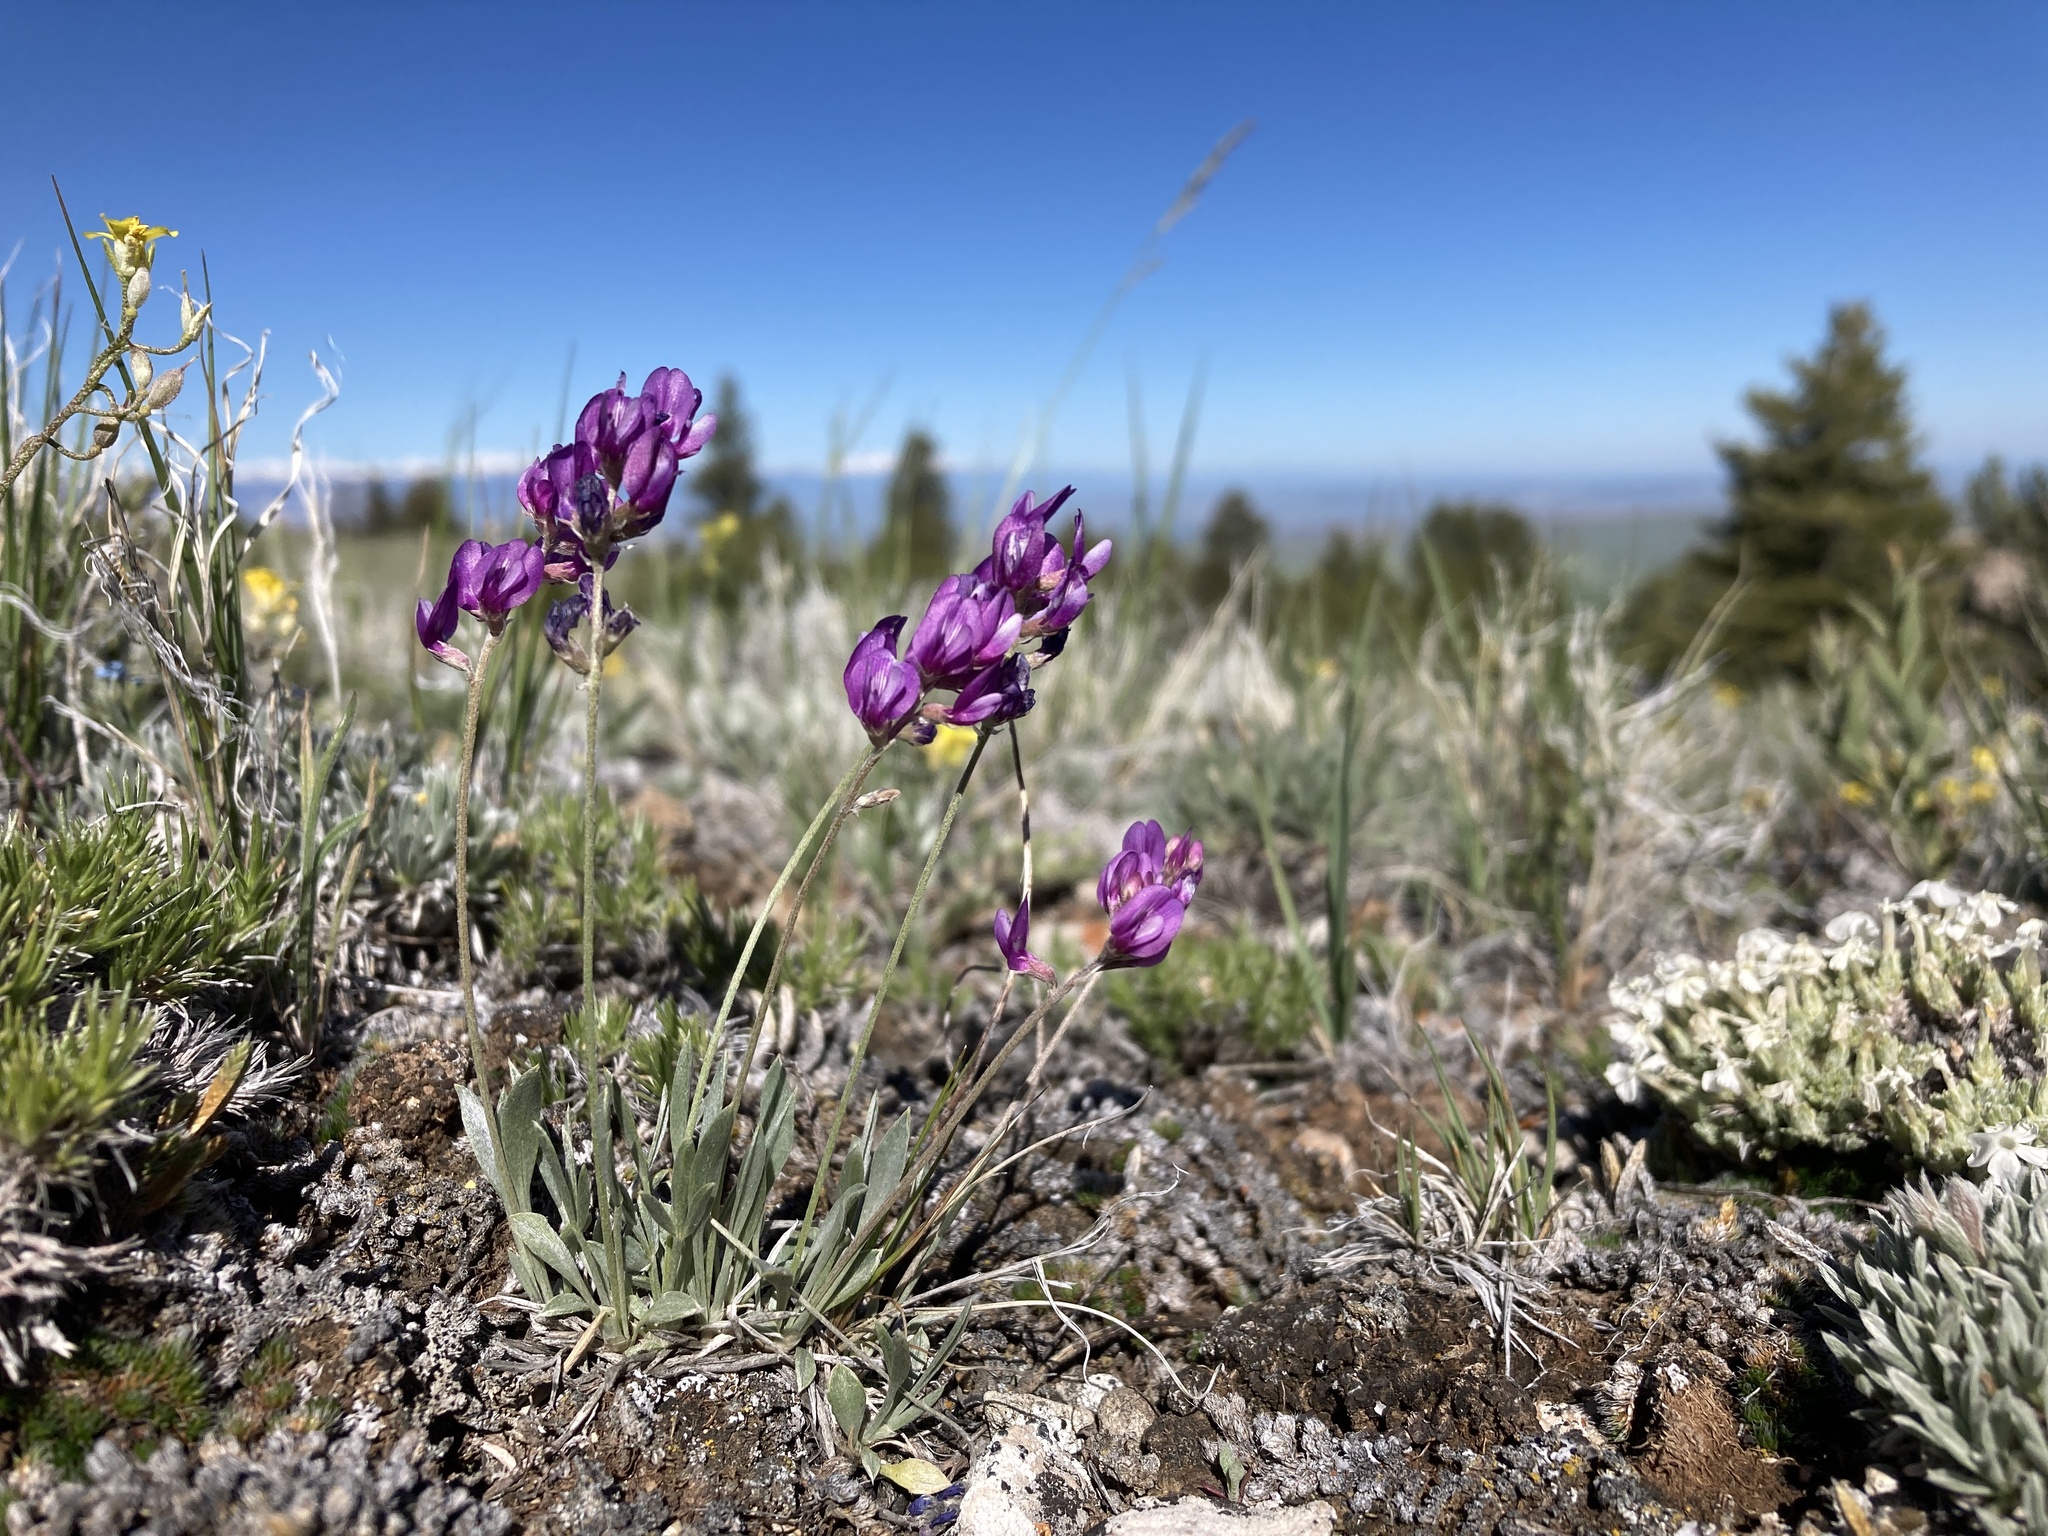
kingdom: Plantae
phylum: Tracheophyta
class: Magnoliopsida
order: Fabales
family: Fabaceae
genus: Astragalus
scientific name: Astragalus spatulatus
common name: Draba milk-vetch
